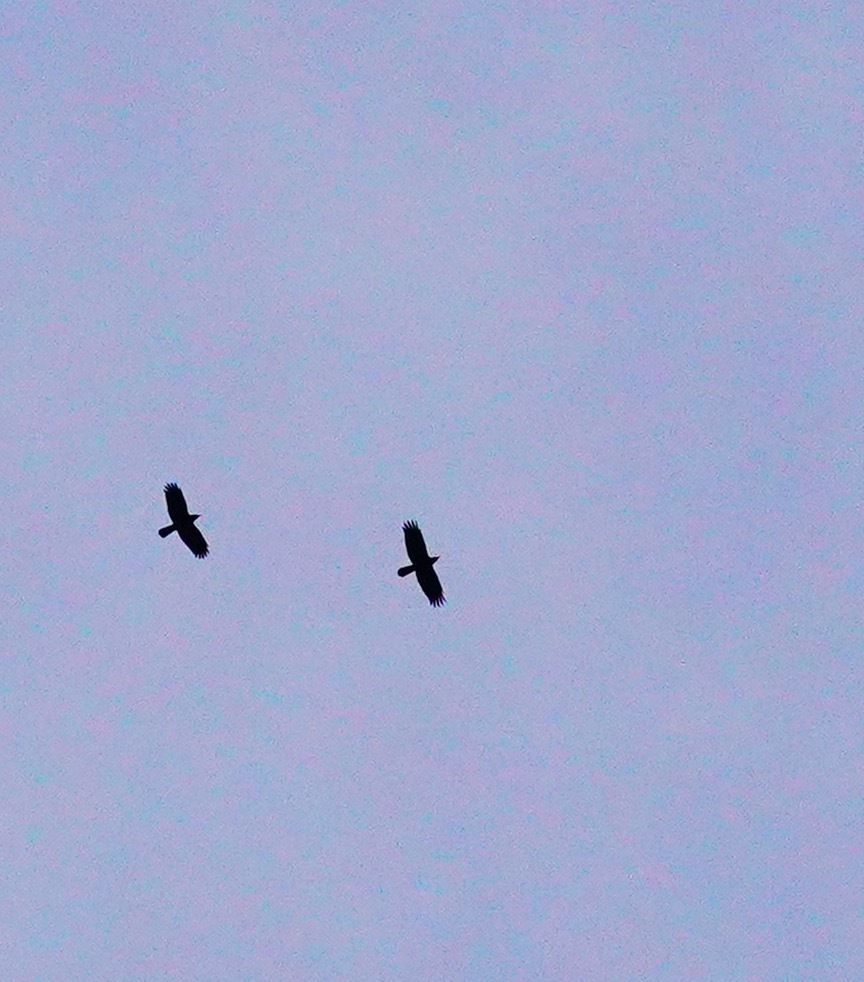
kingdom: Animalia
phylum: Chordata
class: Aves
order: Passeriformes
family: Corvidae
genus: Corvus
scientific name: Corvus corax
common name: Common raven
